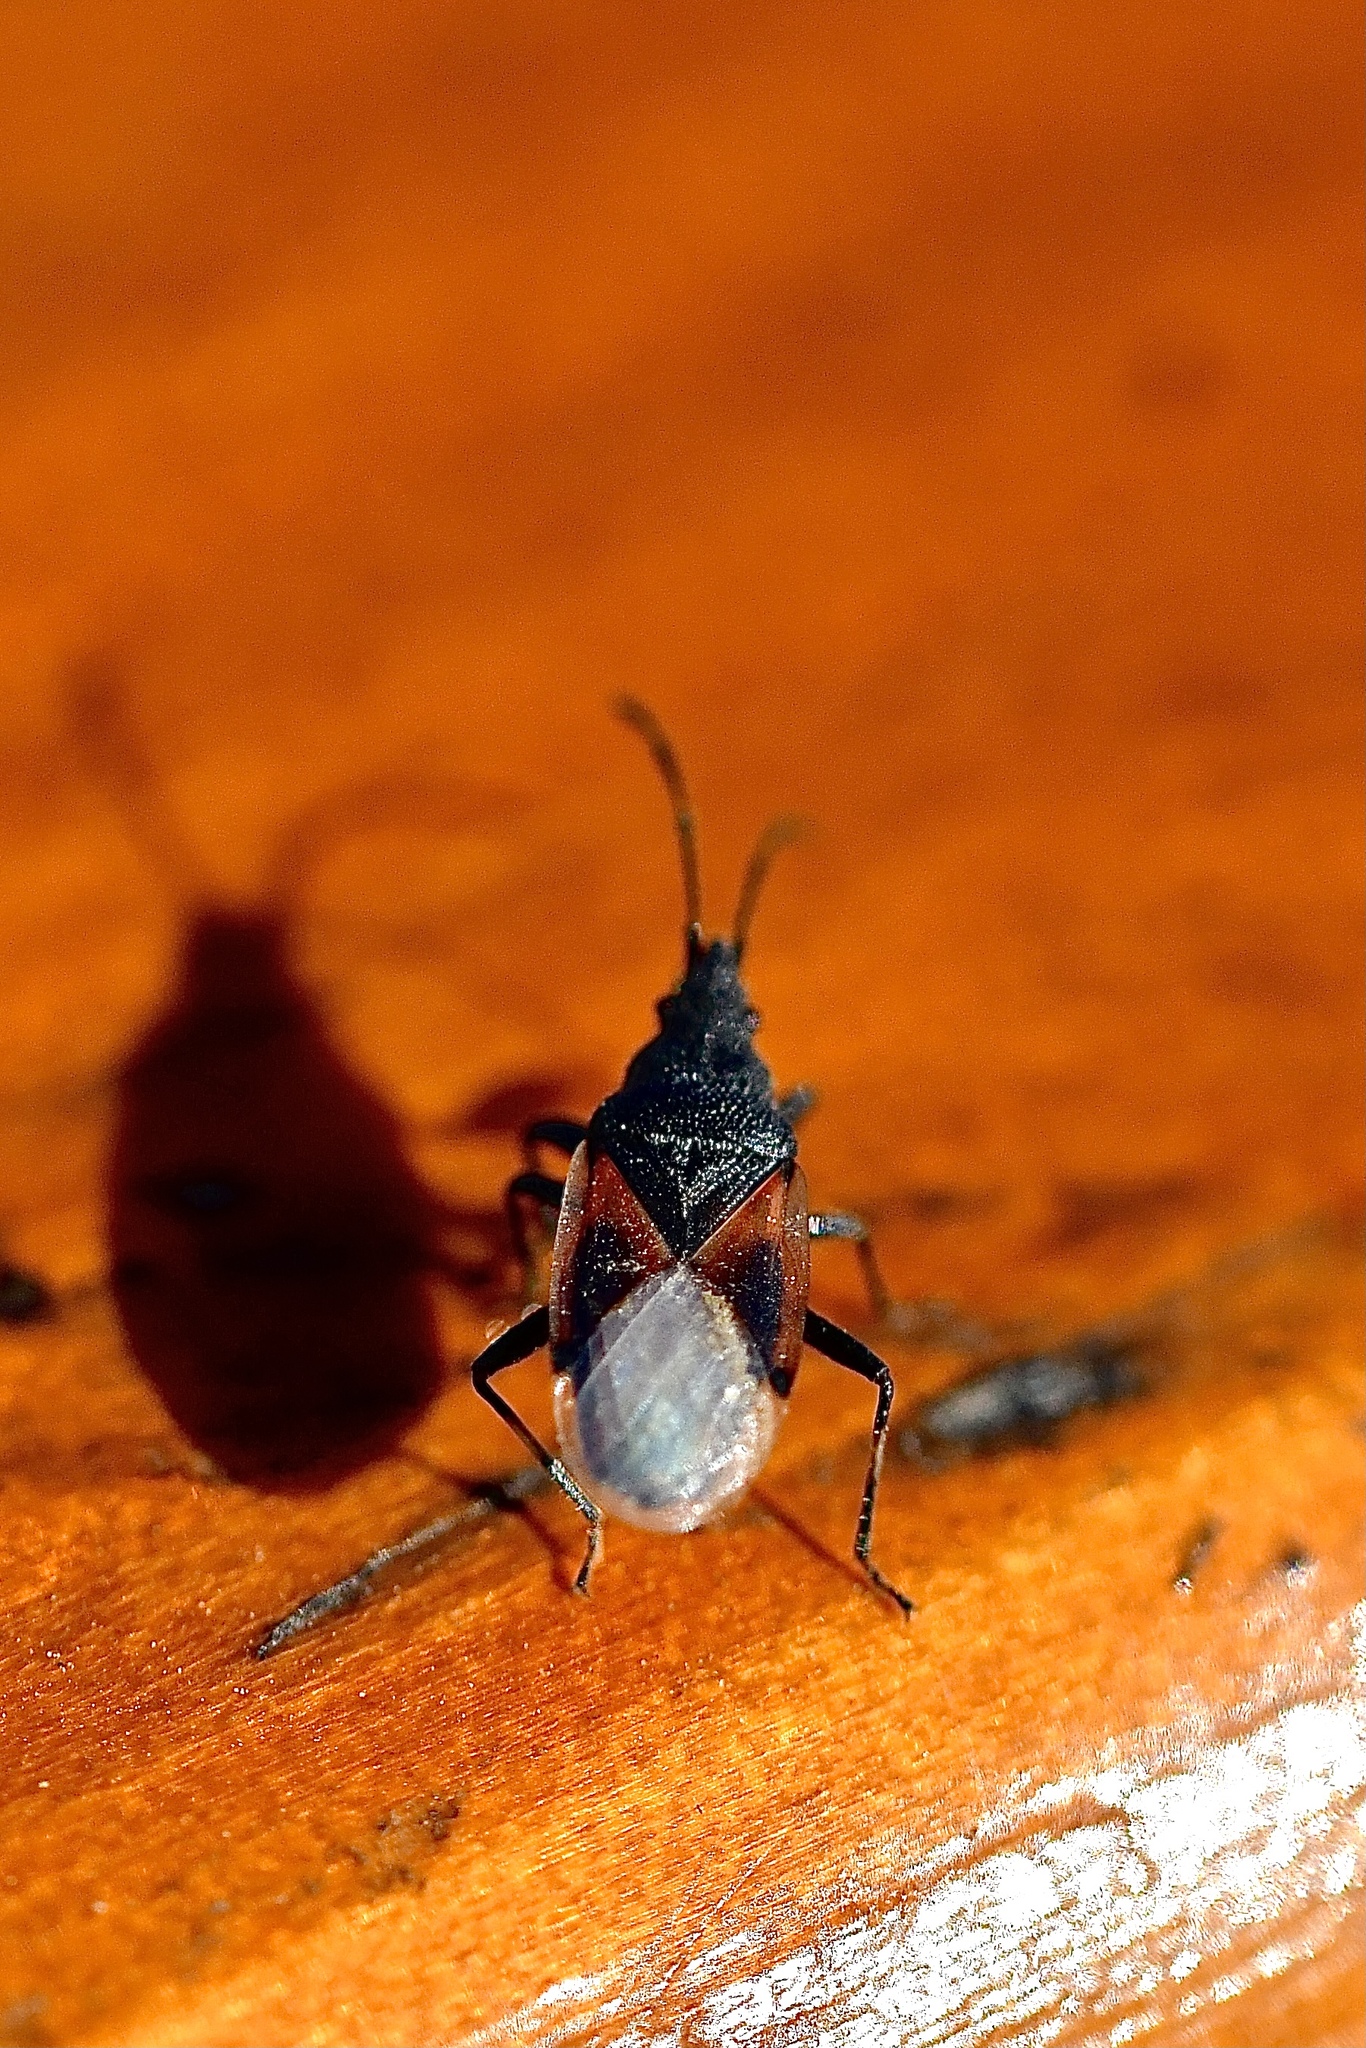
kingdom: Animalia
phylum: Arthropoda
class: Insecta
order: Hemiptera
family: Oxycarenidae
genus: Oxycarenus
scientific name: Oxycarenus lavaterae
